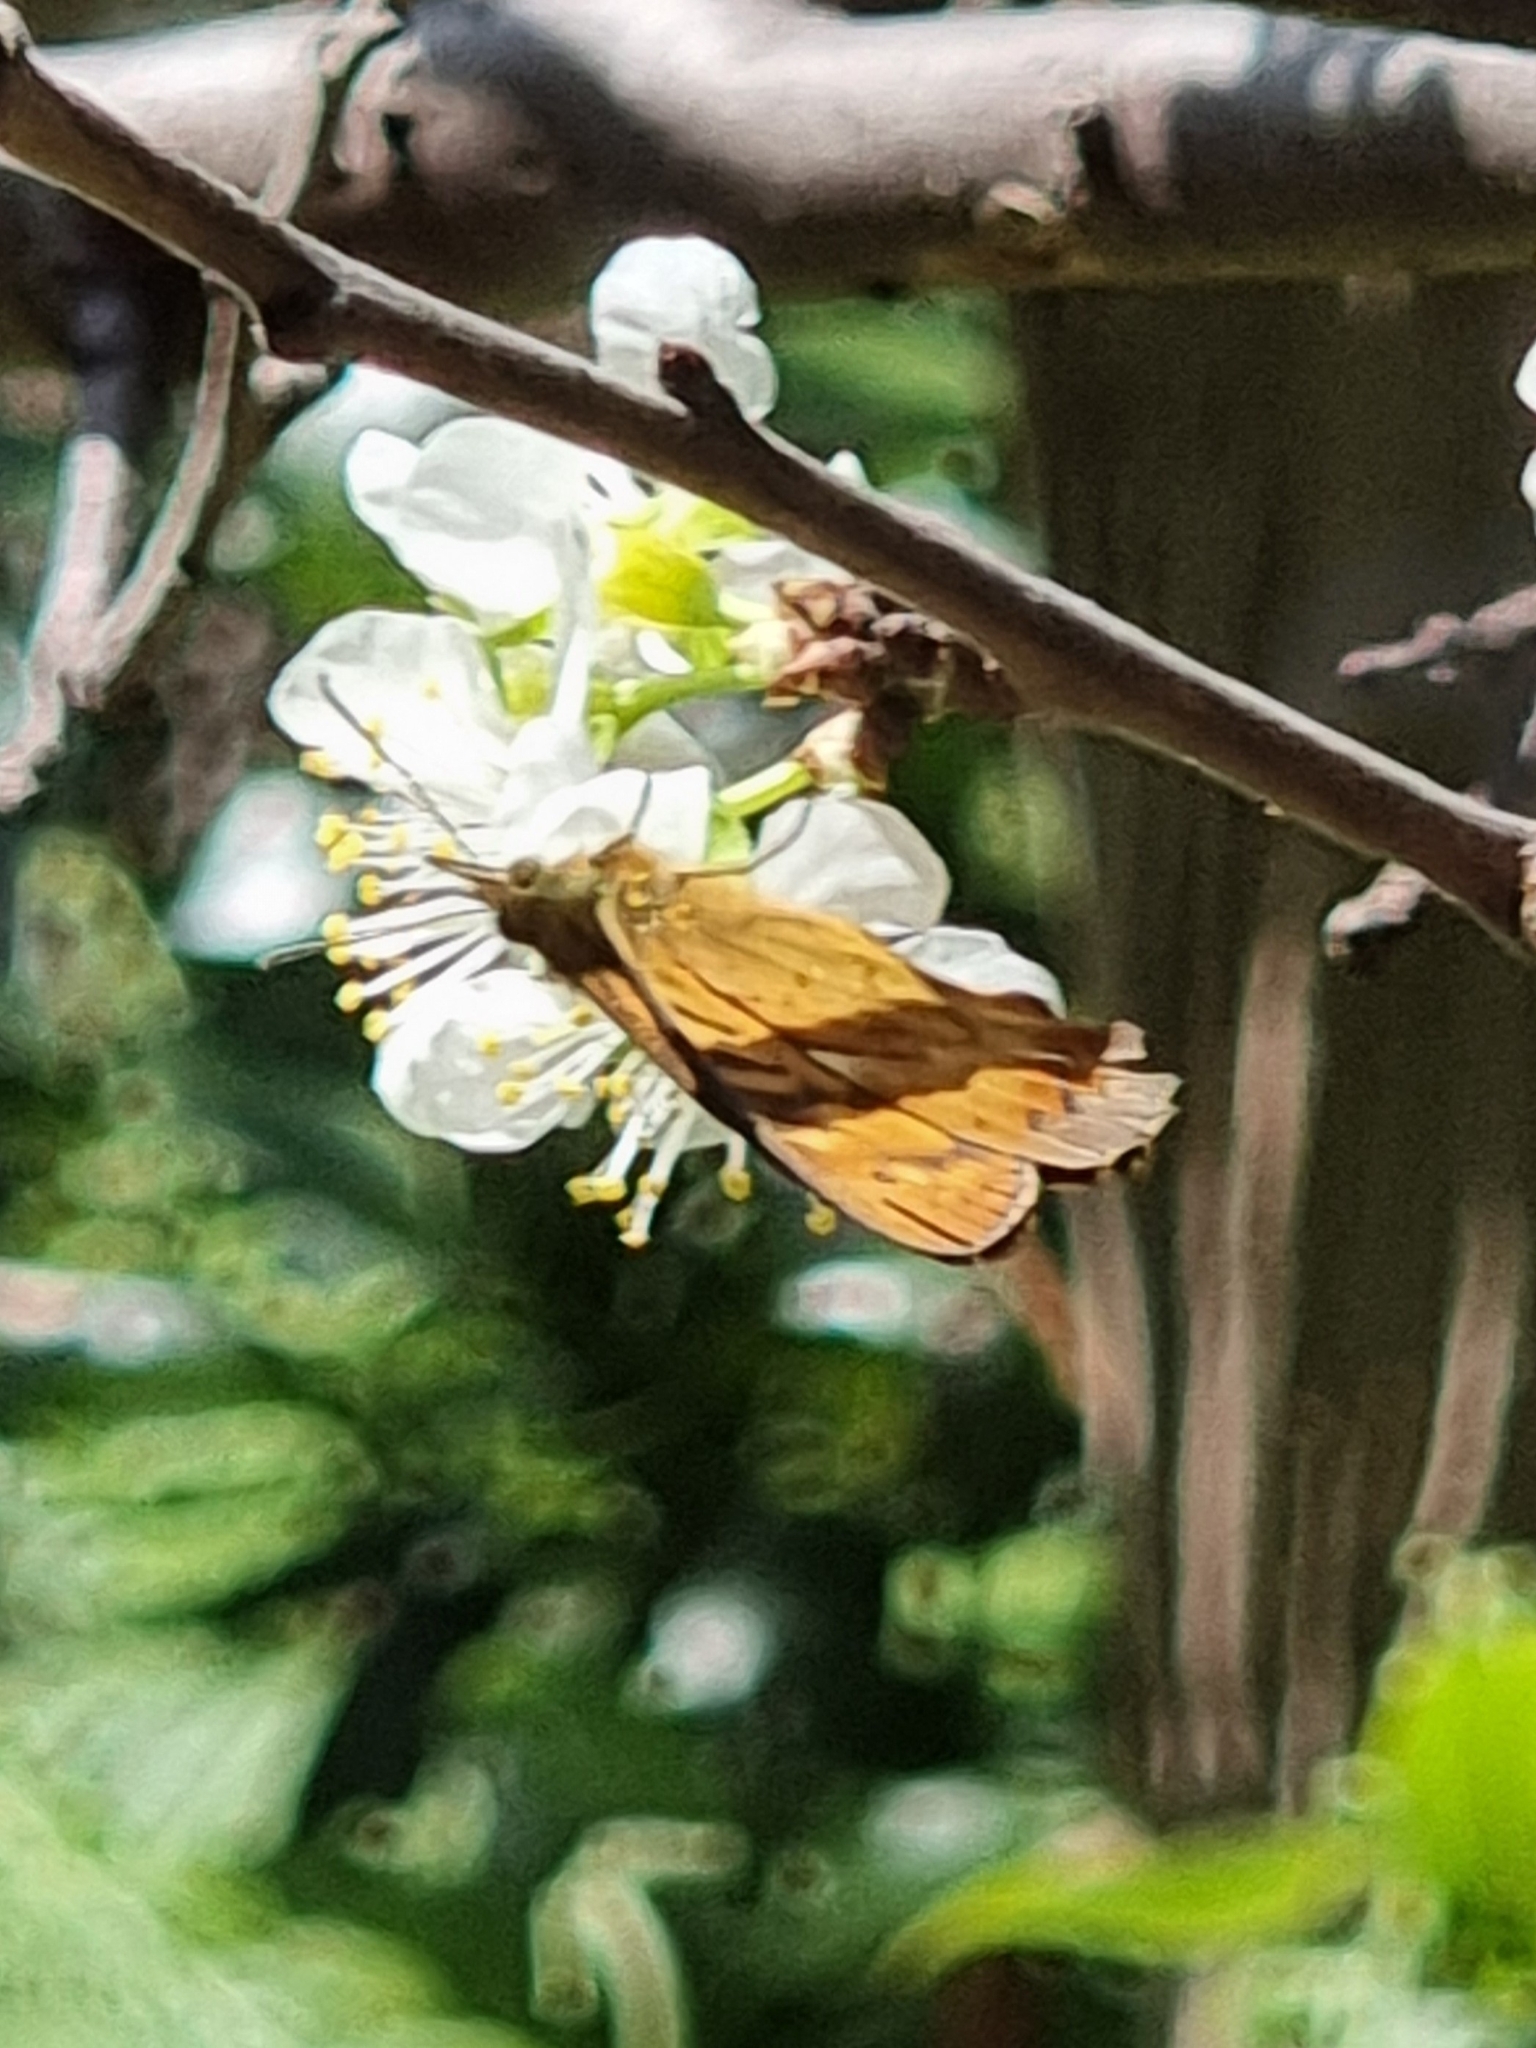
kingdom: Animalia
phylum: Arthropoda
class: Insecta
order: Lepidoptera
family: Nymphalidae
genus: Pararge
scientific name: Pararge
